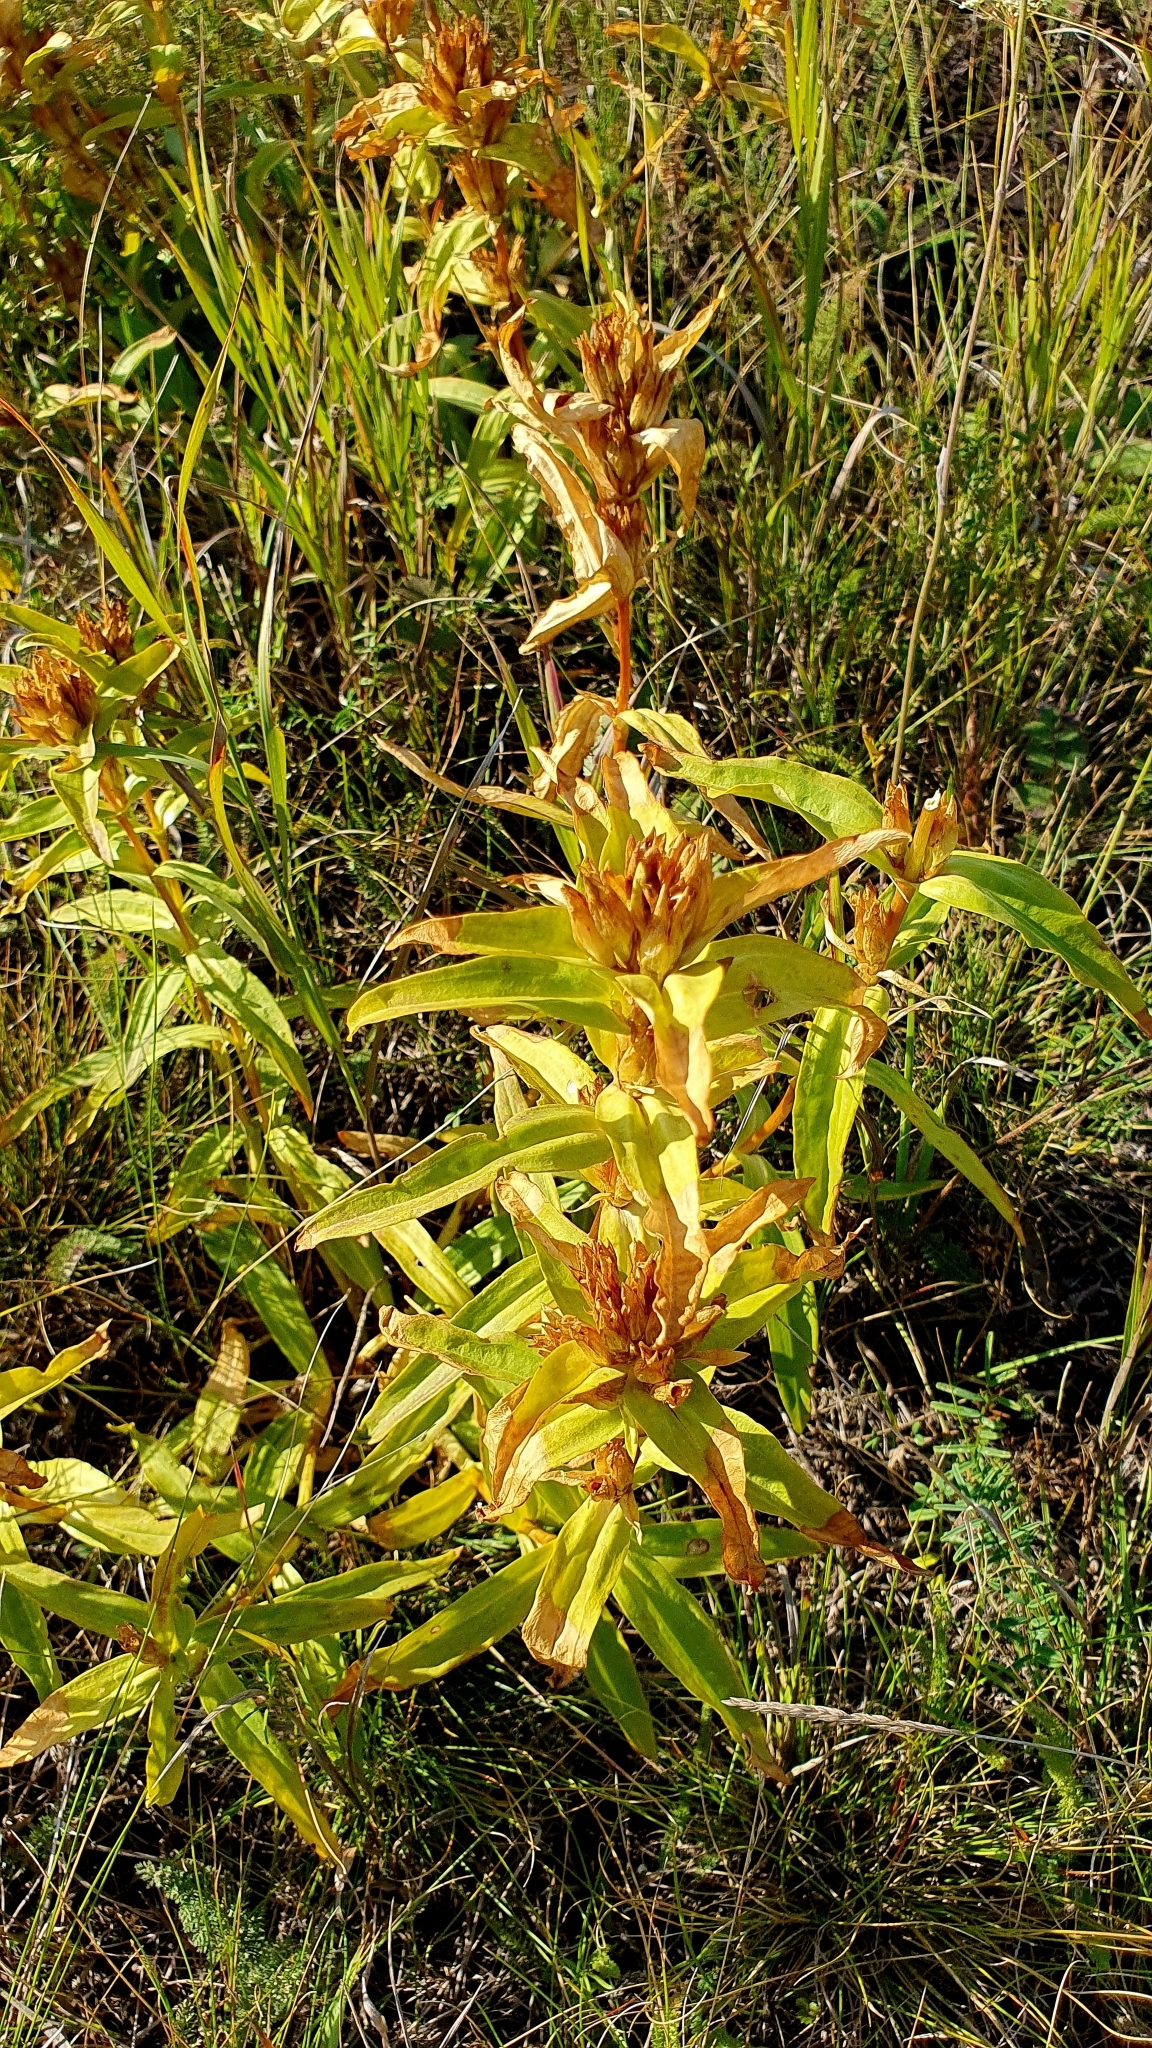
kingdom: Plantae
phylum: Tracheophyta
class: Magnoliopsida
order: Gentianales
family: Gentianaceae
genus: Gentiana
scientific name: Gentiana cruciata
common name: Cross gentian
